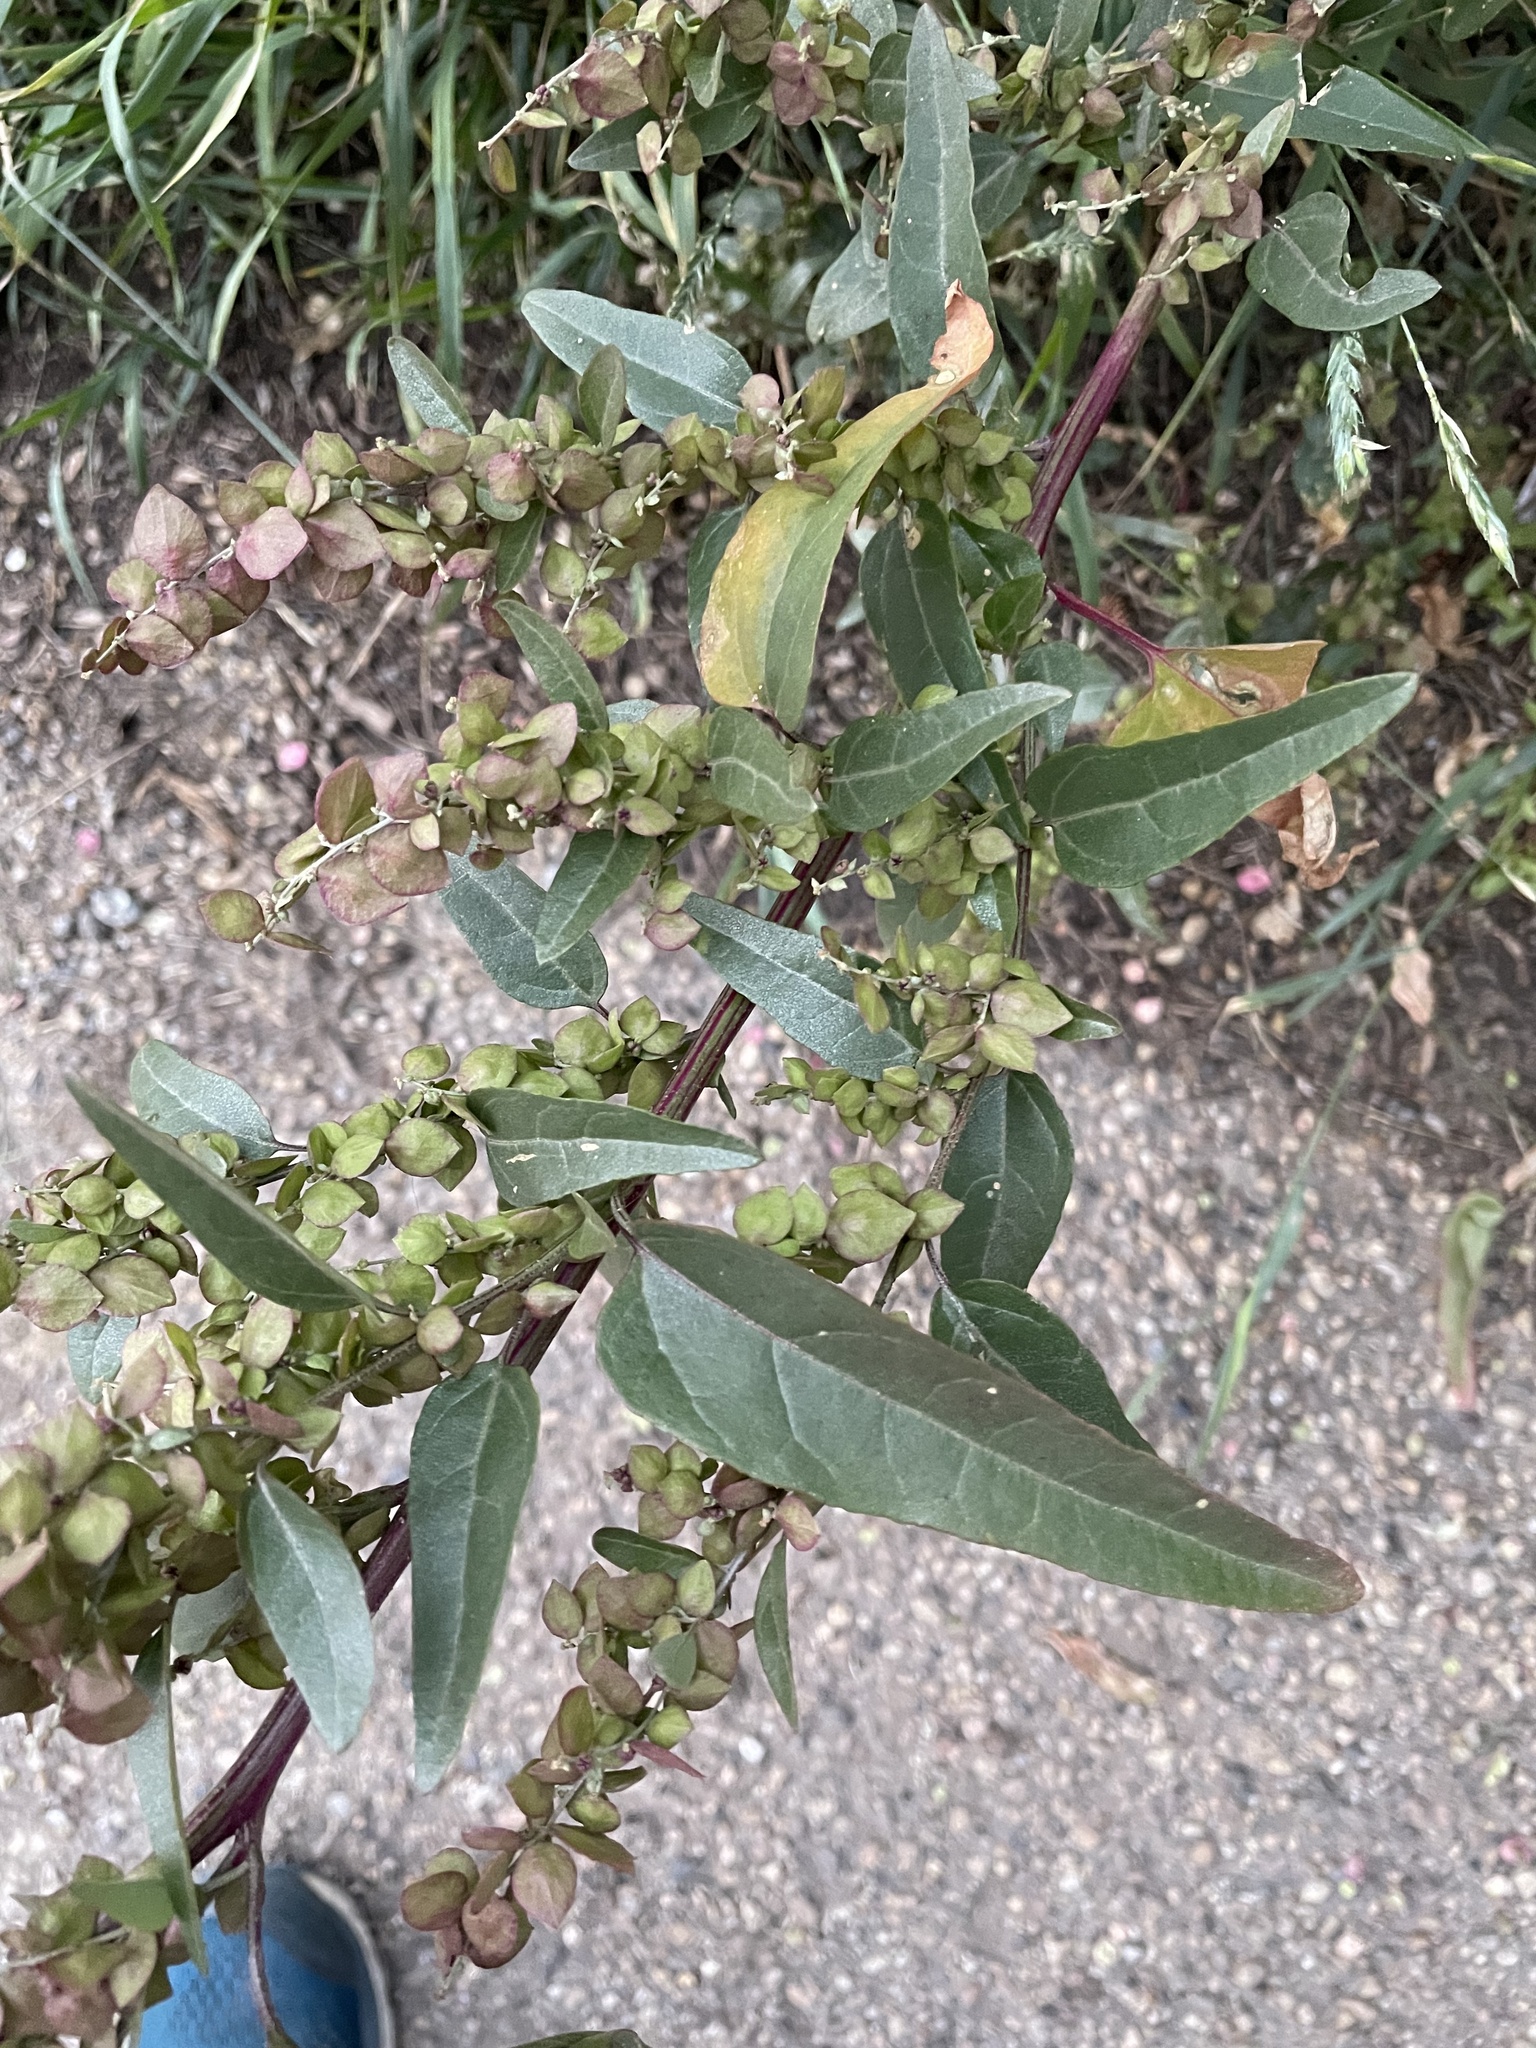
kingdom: Plantae
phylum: Tracheophyta
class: Magnoliopsida
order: Caryophyllales
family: Amaranthaceae
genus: Atriplex
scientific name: Atriplex hortensis
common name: Garden orache
